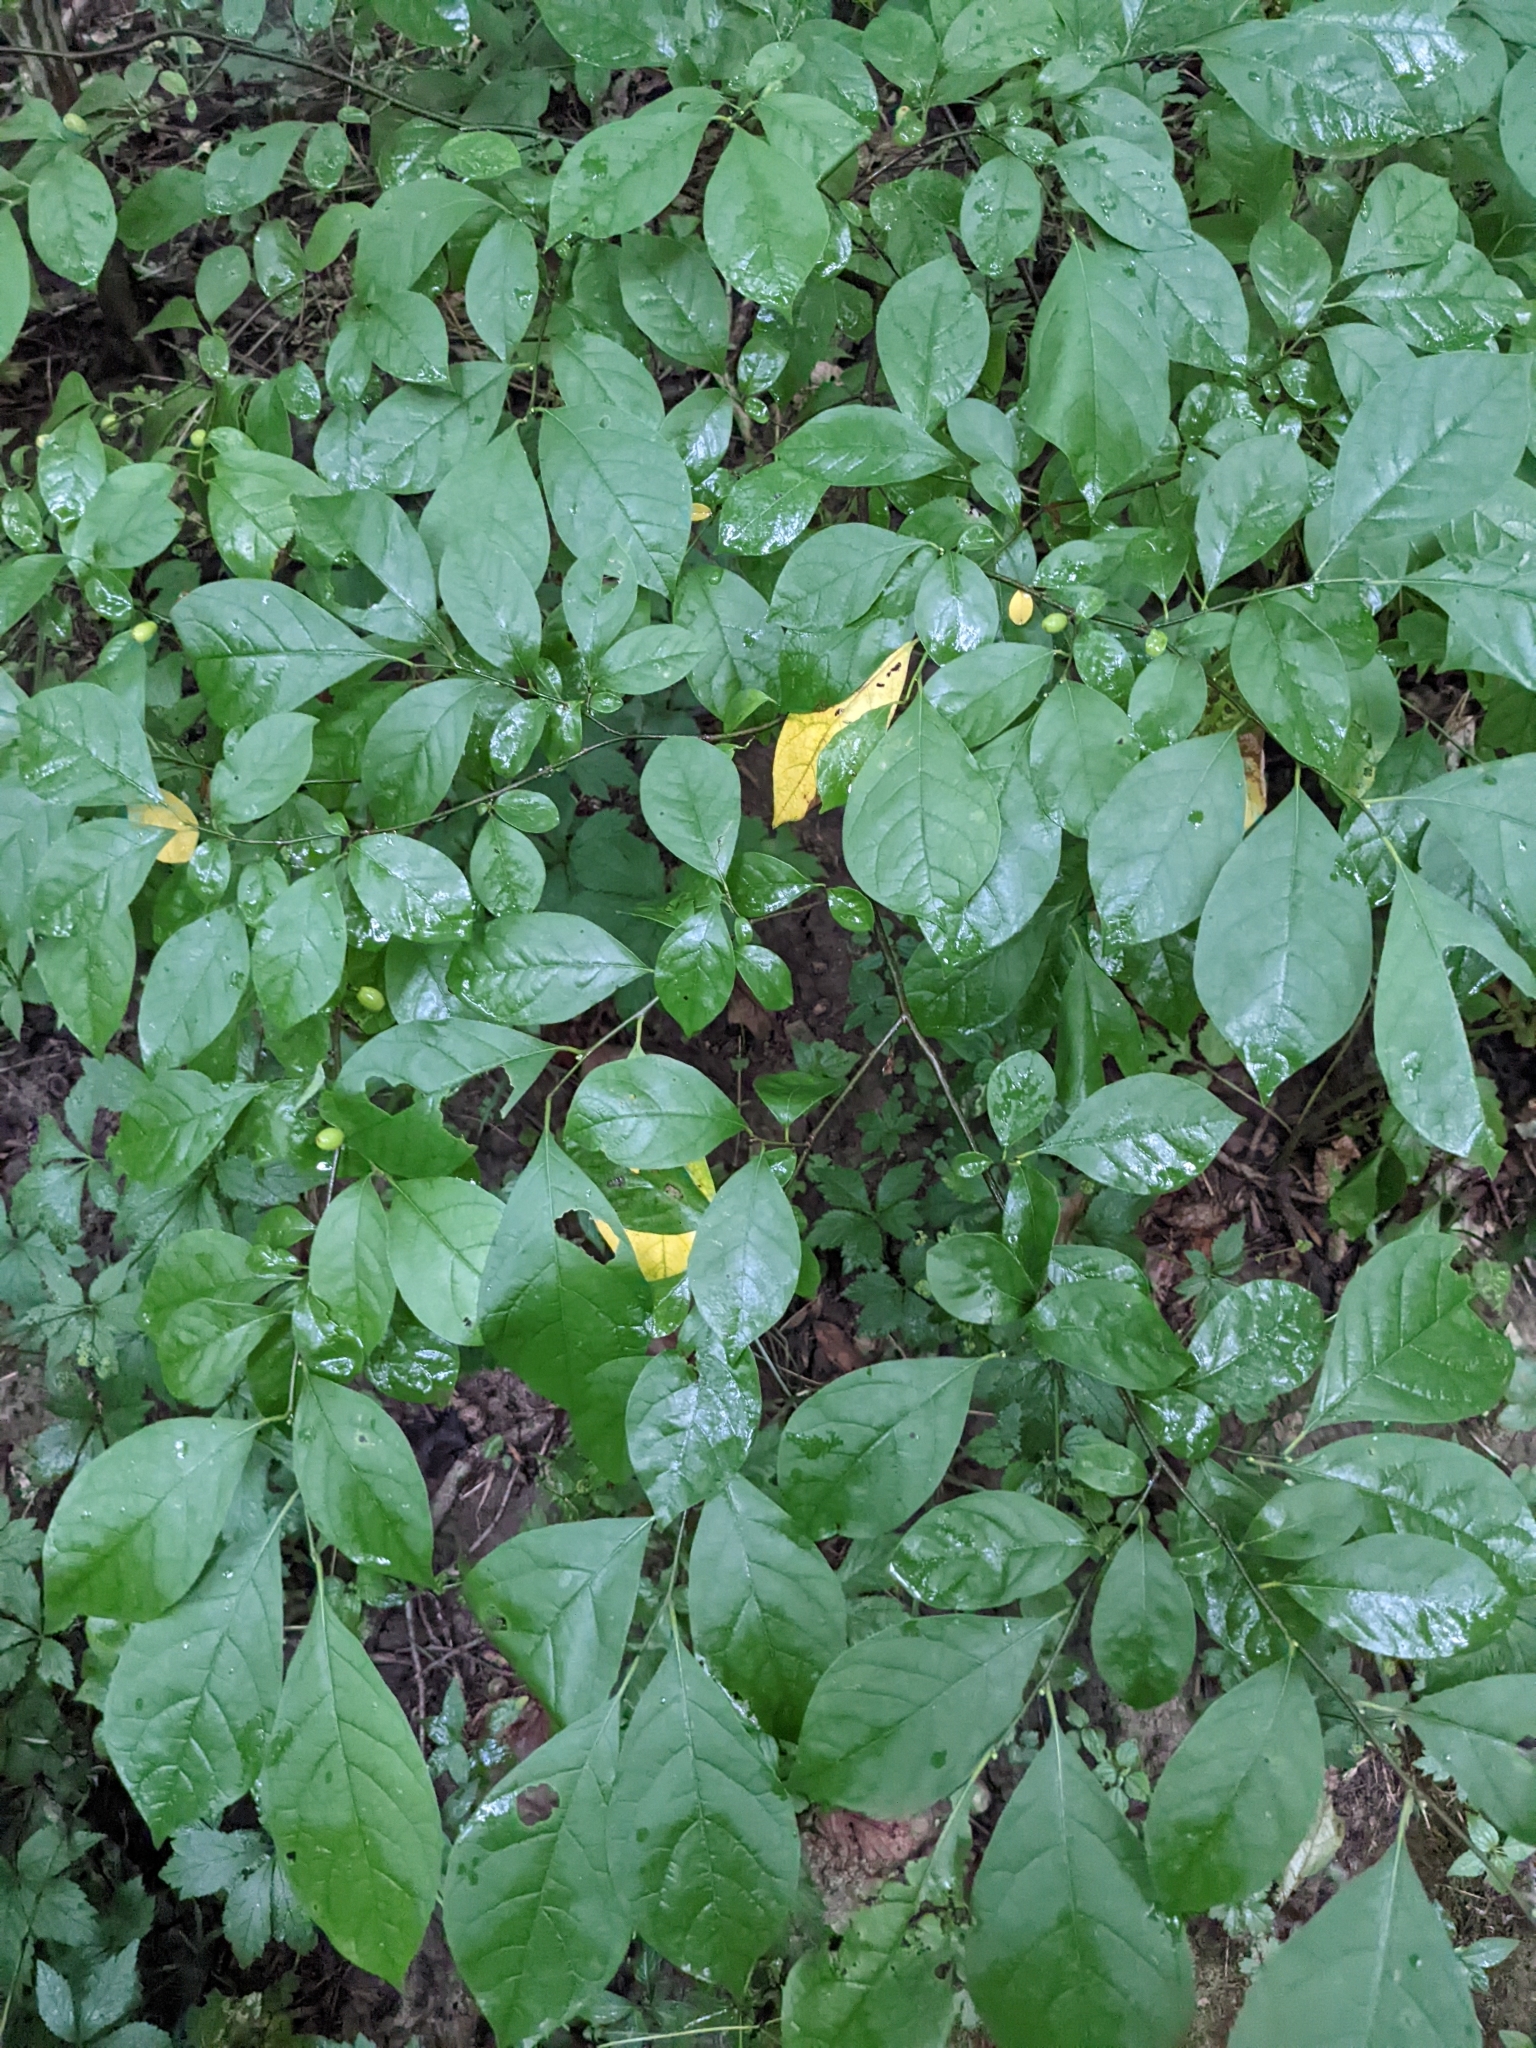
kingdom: Plantae
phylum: Tracheophyta
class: Magnoliopsida
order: Laurales
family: Lauraceae
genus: Lindera
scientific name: Lindera benzoin
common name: Spicebush
